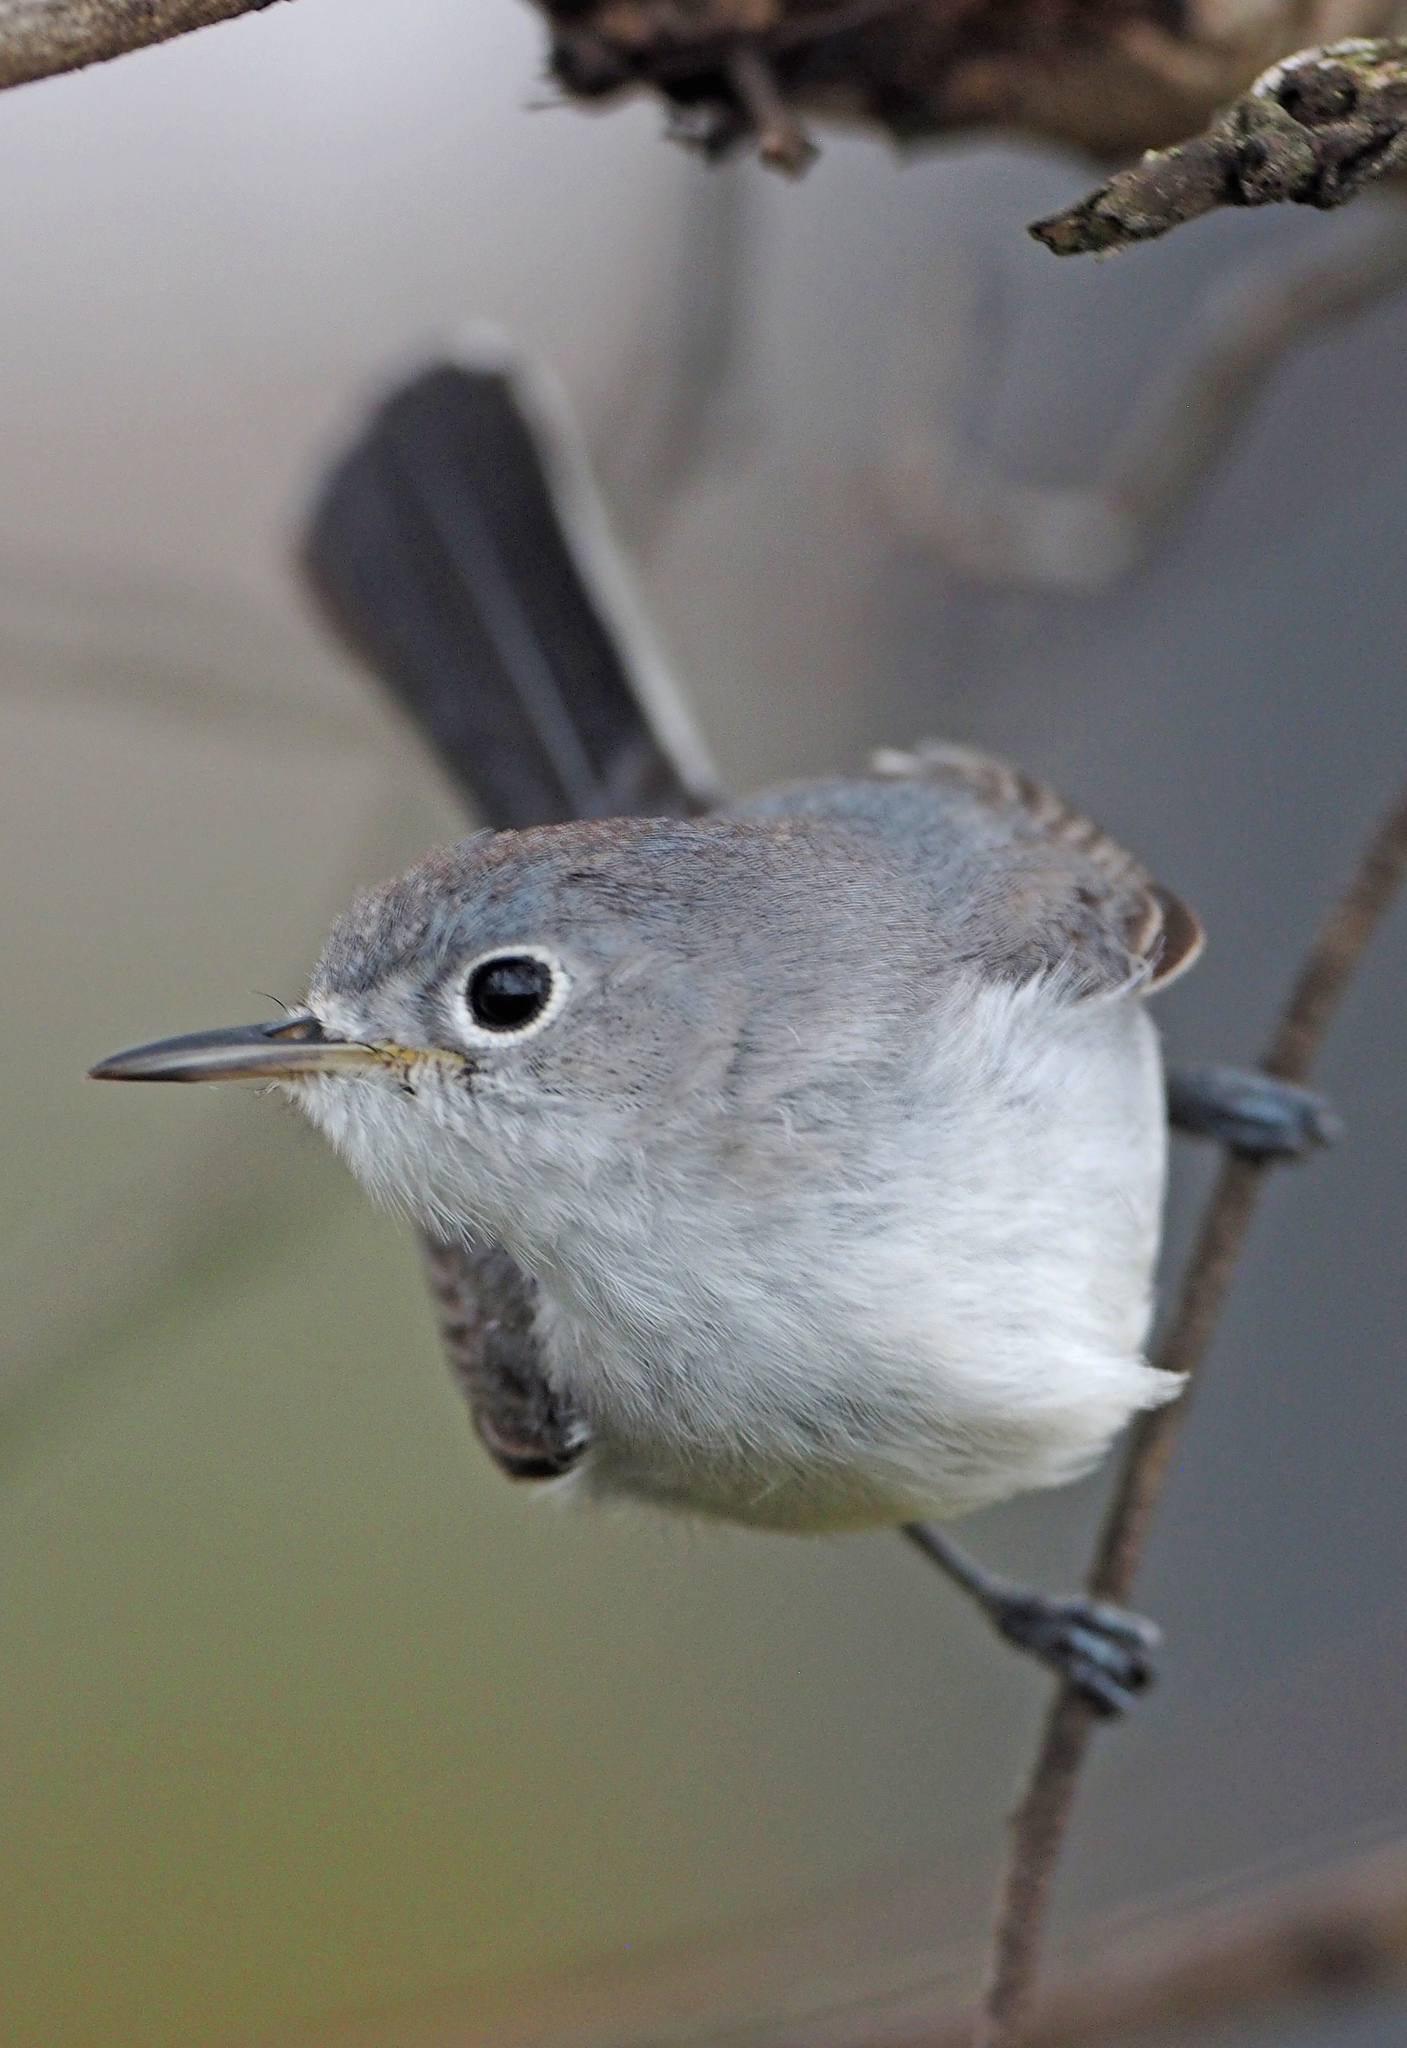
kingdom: Animalia
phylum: Chordata
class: Aves
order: Passeriformes
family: Polioptilidae
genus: Polioptila
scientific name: Polioptila caerulea
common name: Blue-gray gnatcatcher
